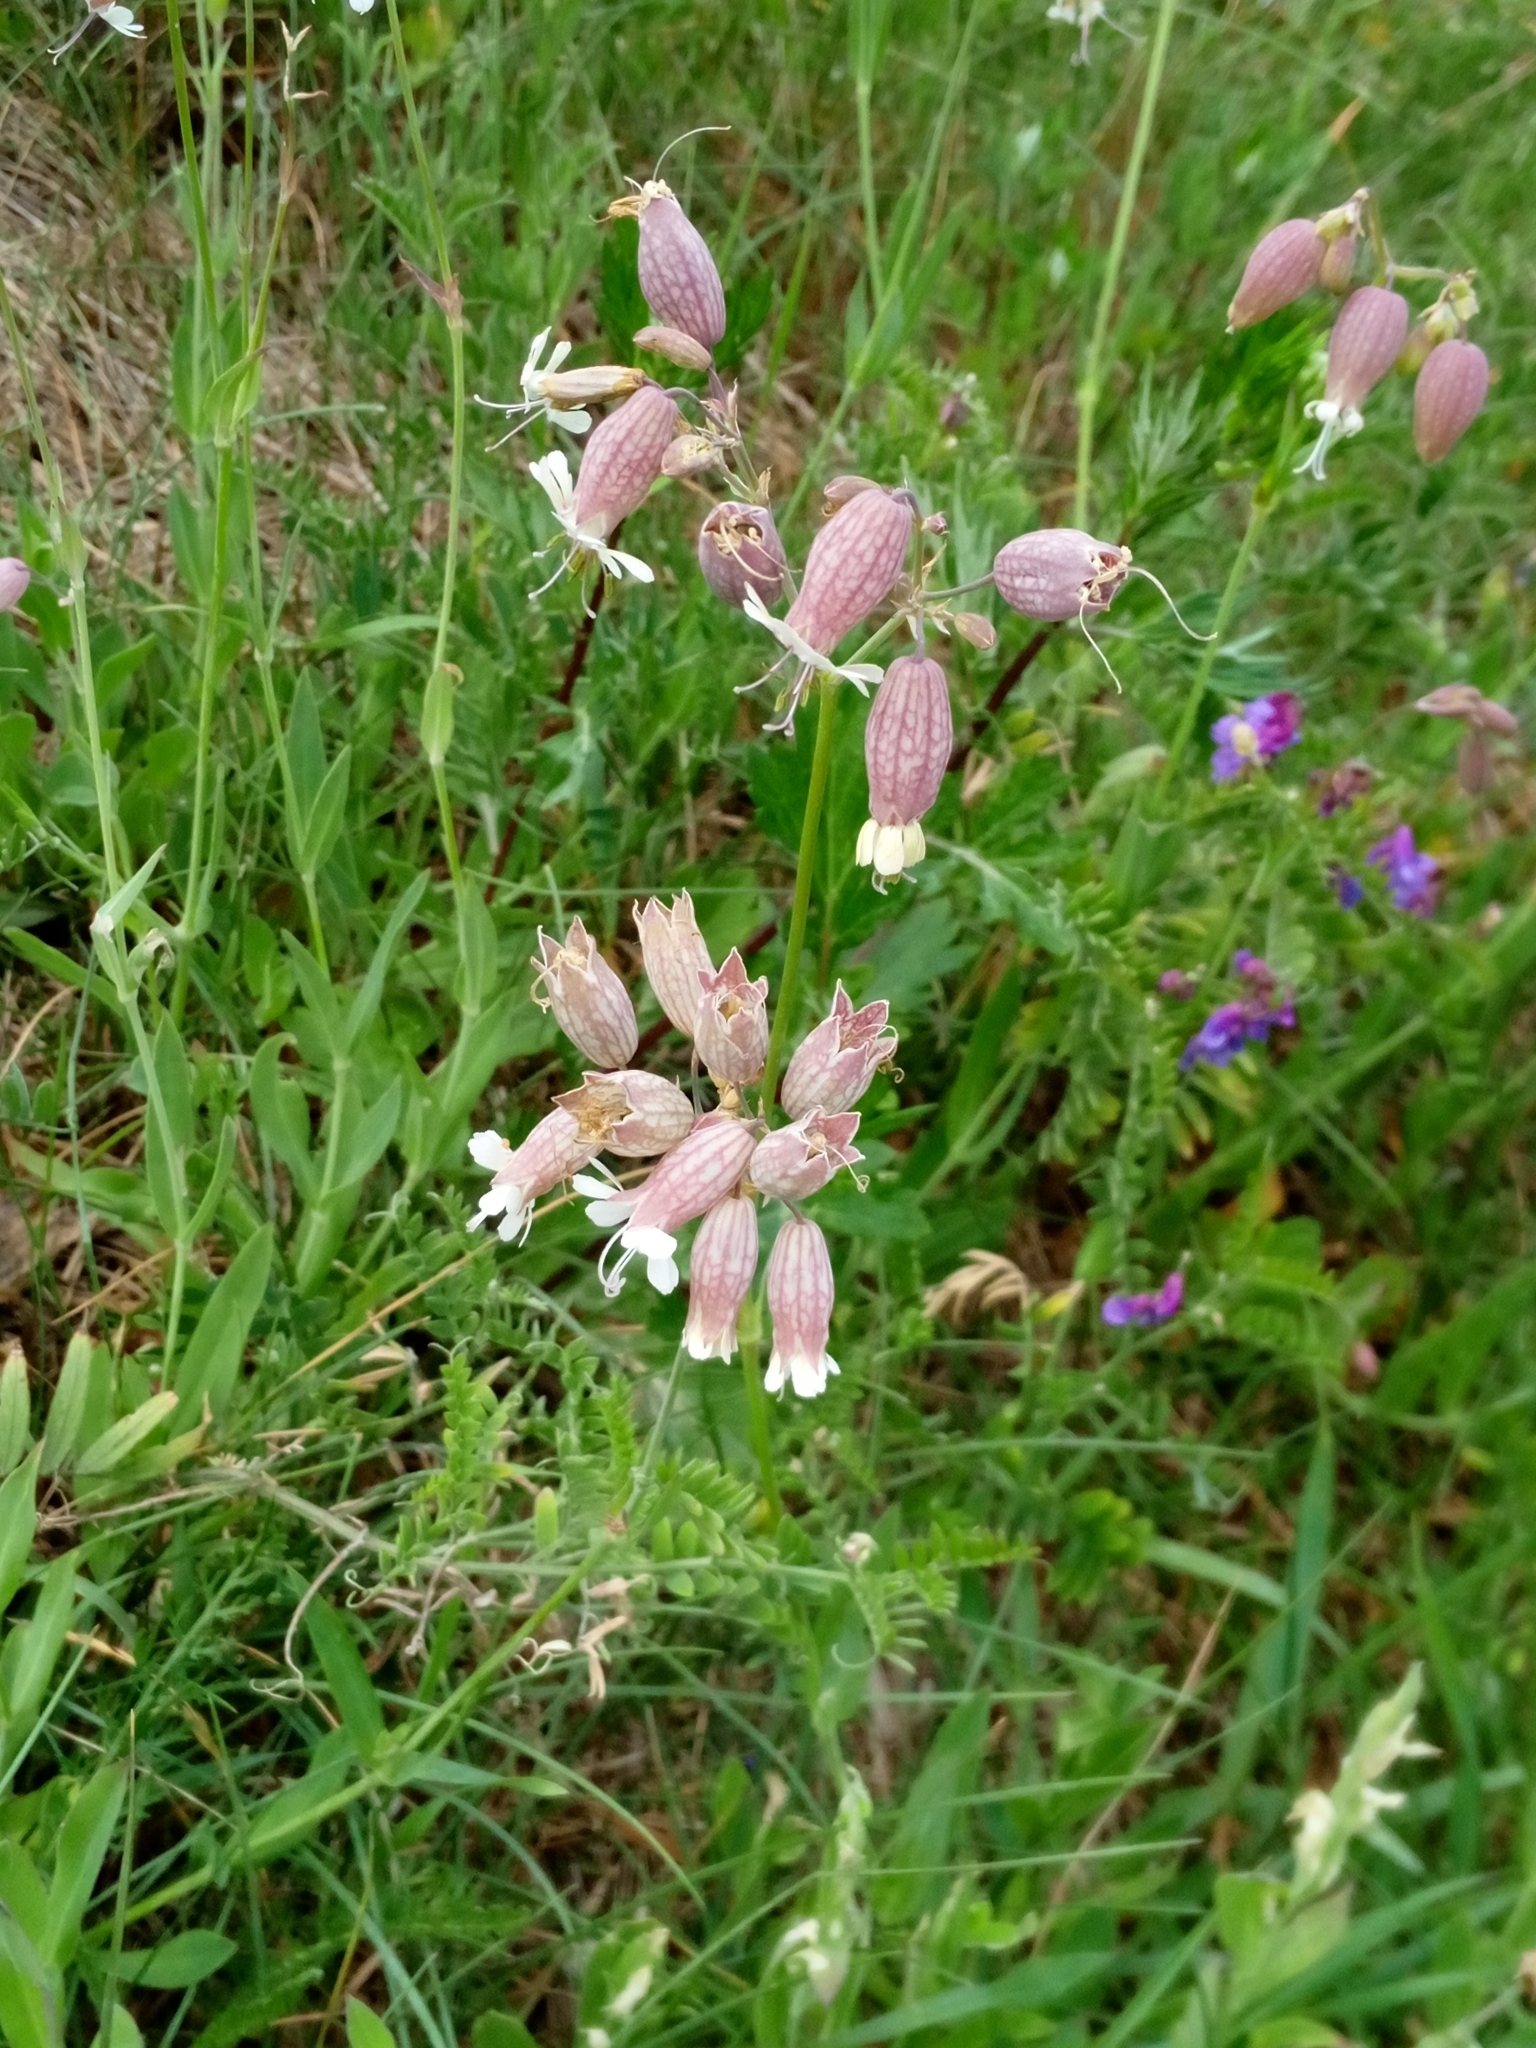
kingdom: Plantae
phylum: Tracheophyta
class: Magnoliopsida
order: Caryophyllales
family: Caryophyllaceae
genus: Silene
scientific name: Silene vulgaris
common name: Bladder campion
